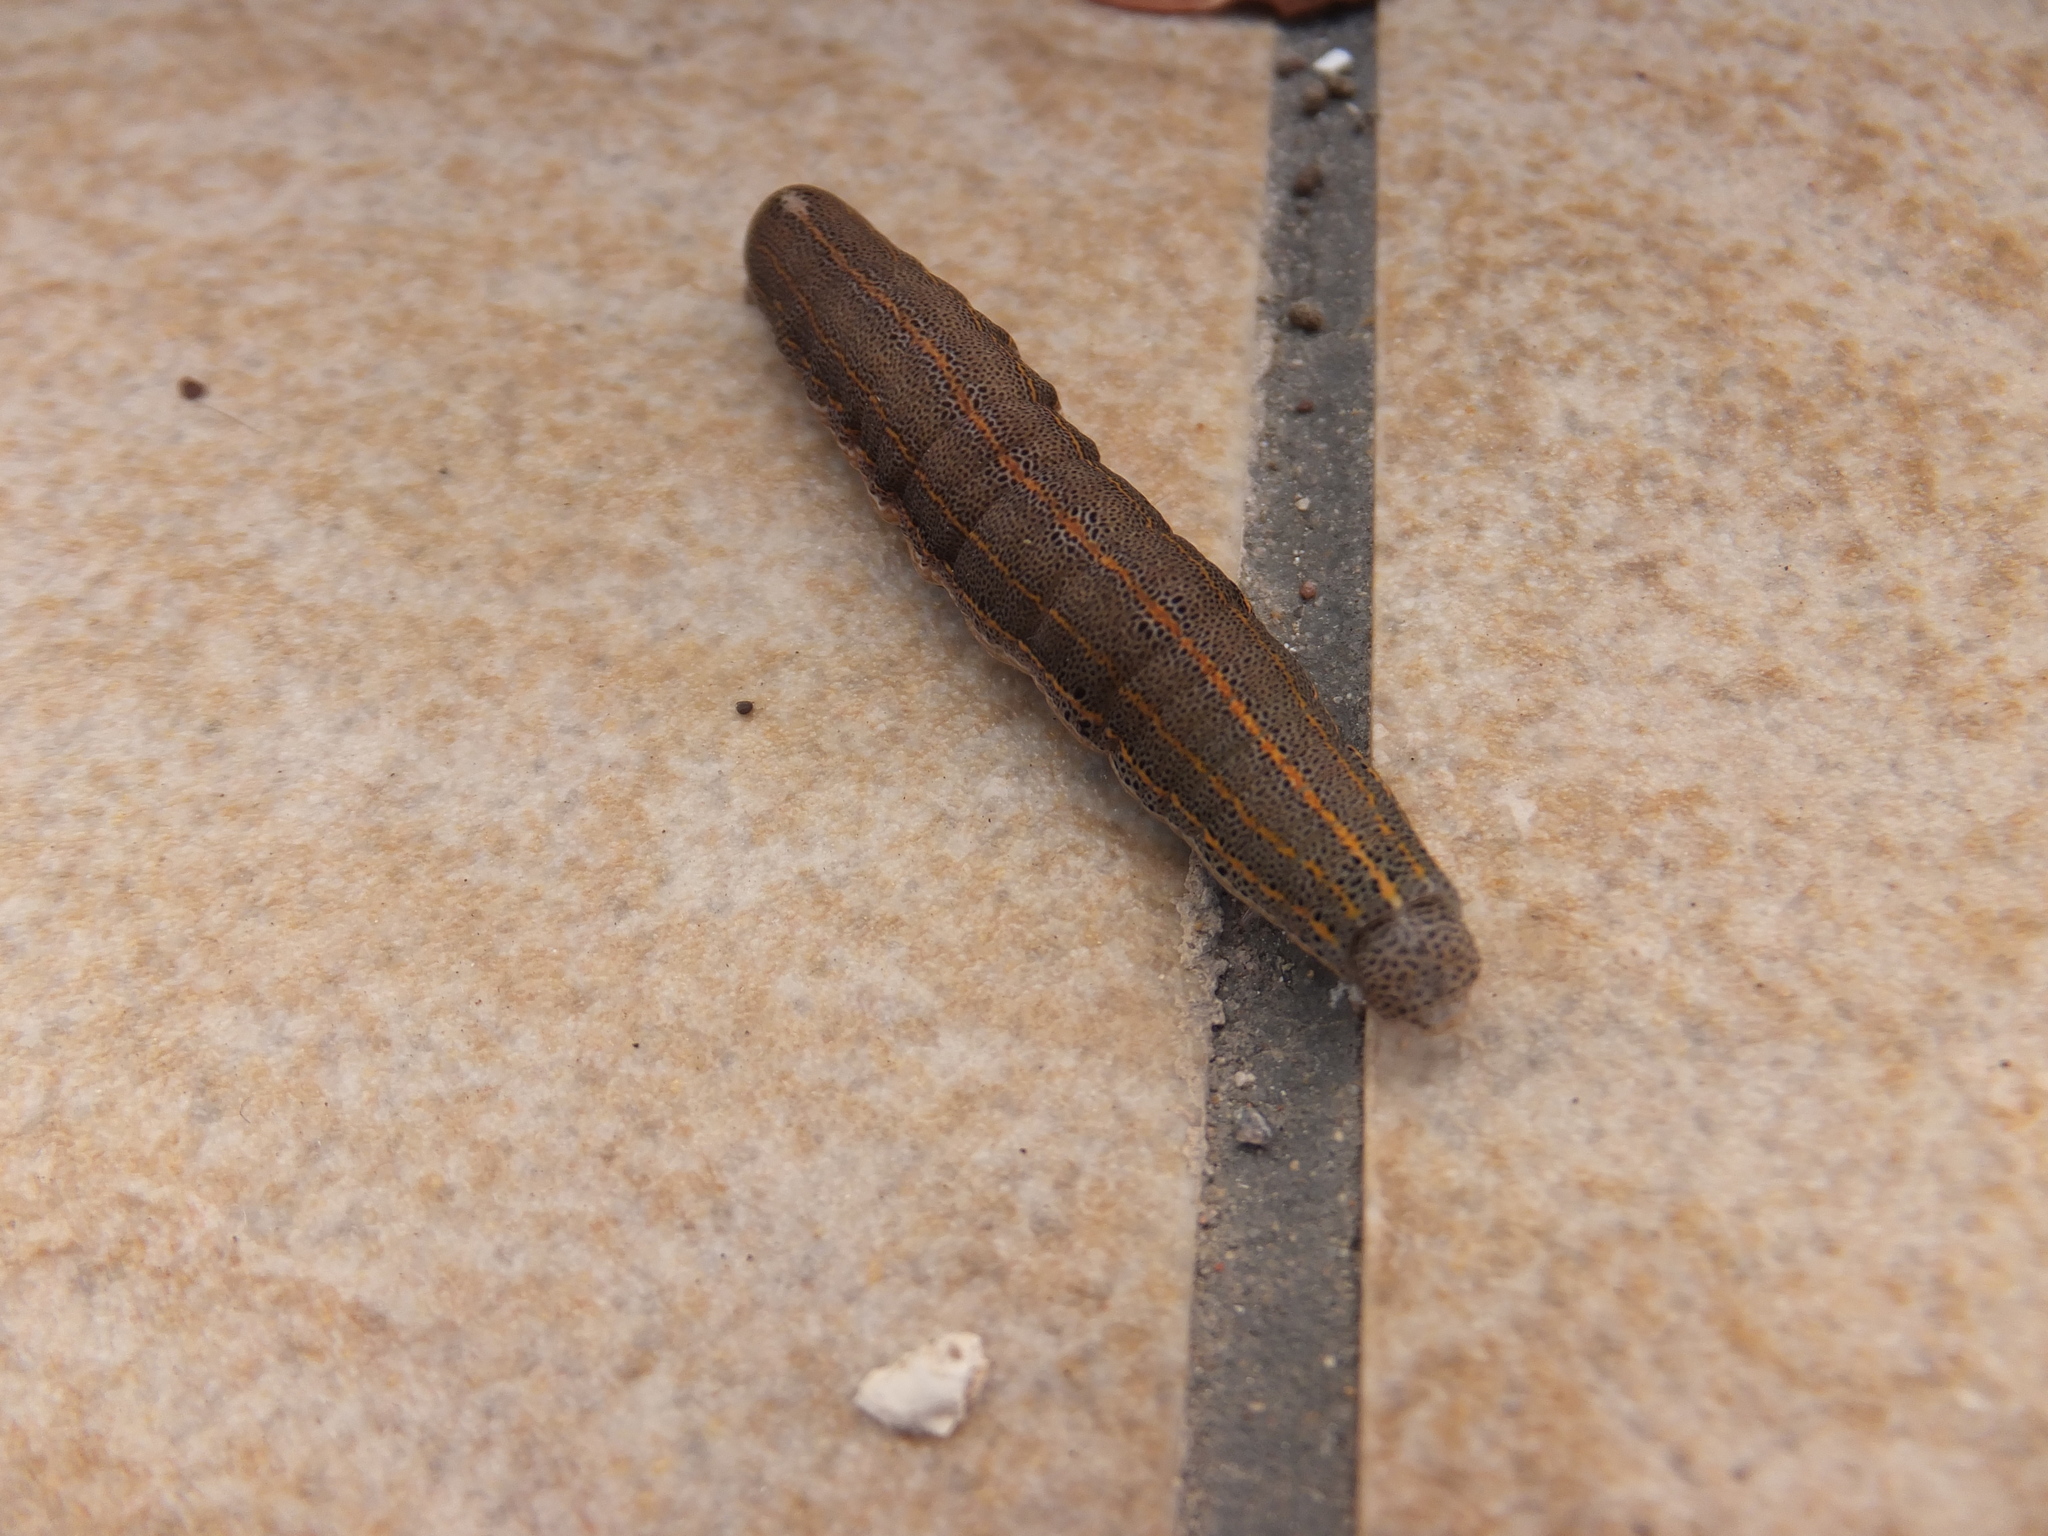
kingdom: Animalia
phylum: Arthropoda
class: Insecta
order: Lepidoptera
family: Noctuidae
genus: Aedia
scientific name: Aedia leucomelas
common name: Sorcerer
